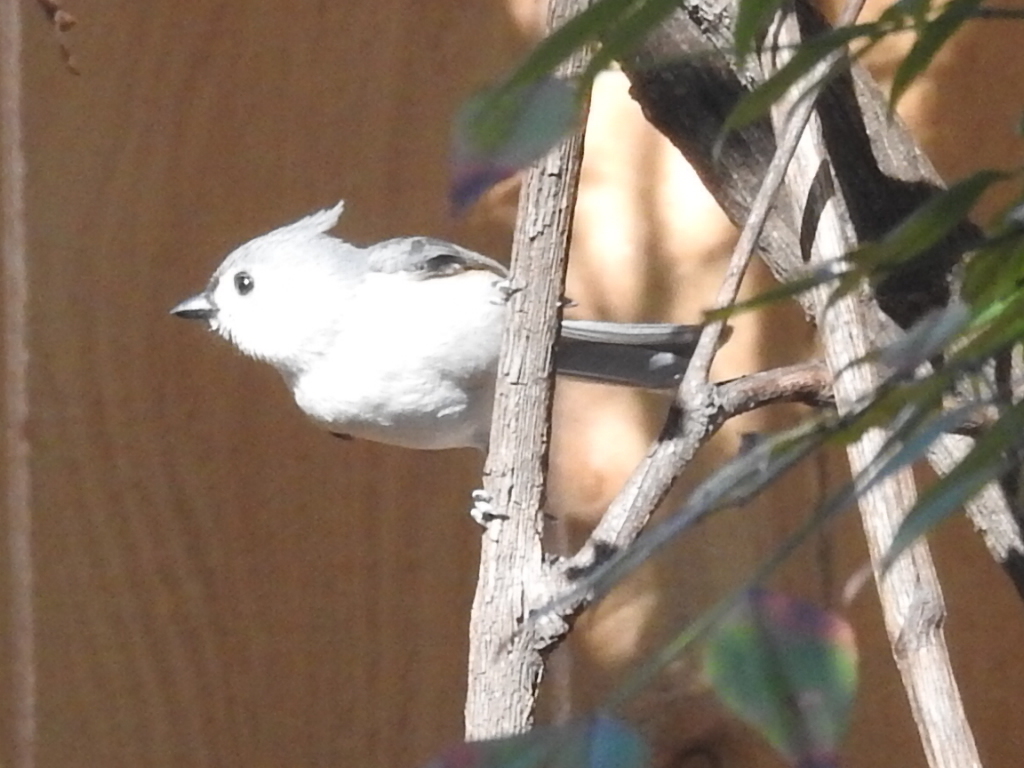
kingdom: Animalia
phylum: Chordata
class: Aves
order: Passeriformes
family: Paridae
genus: Baeolophus
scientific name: Baeolophus bicolor
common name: Tufted titmouse
